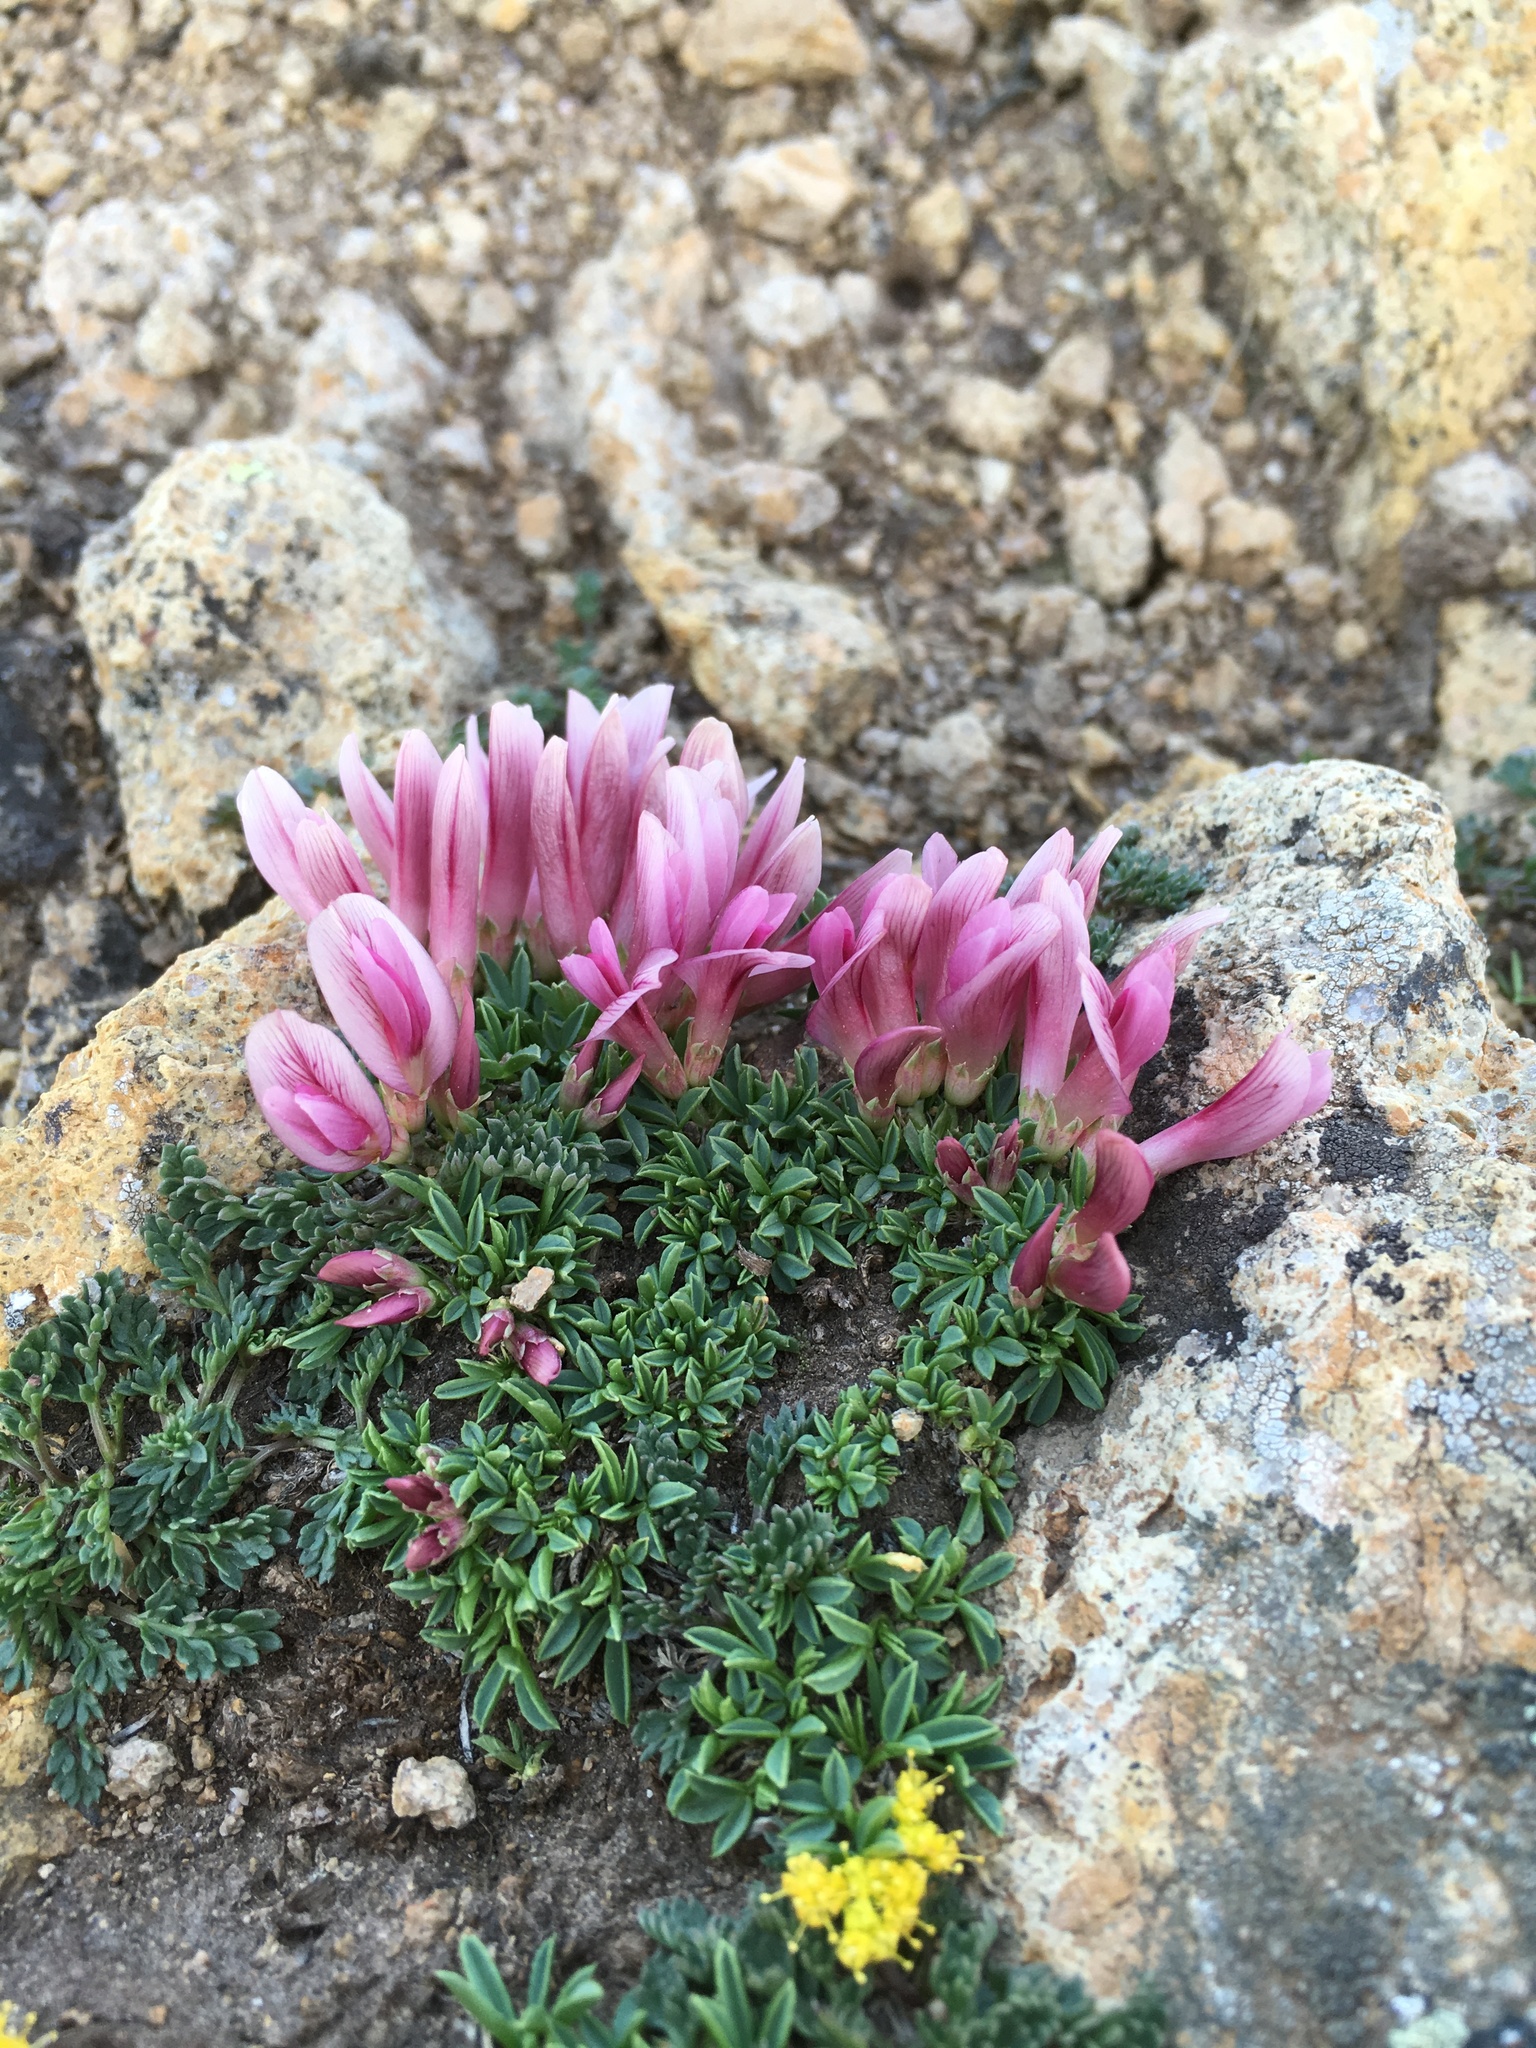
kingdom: Plantae
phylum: Tracheophyta
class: Magnoliopsida
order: Fabales
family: Fabaceae
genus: Trifolium
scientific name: Trifolium nanum
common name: Tundra clover
